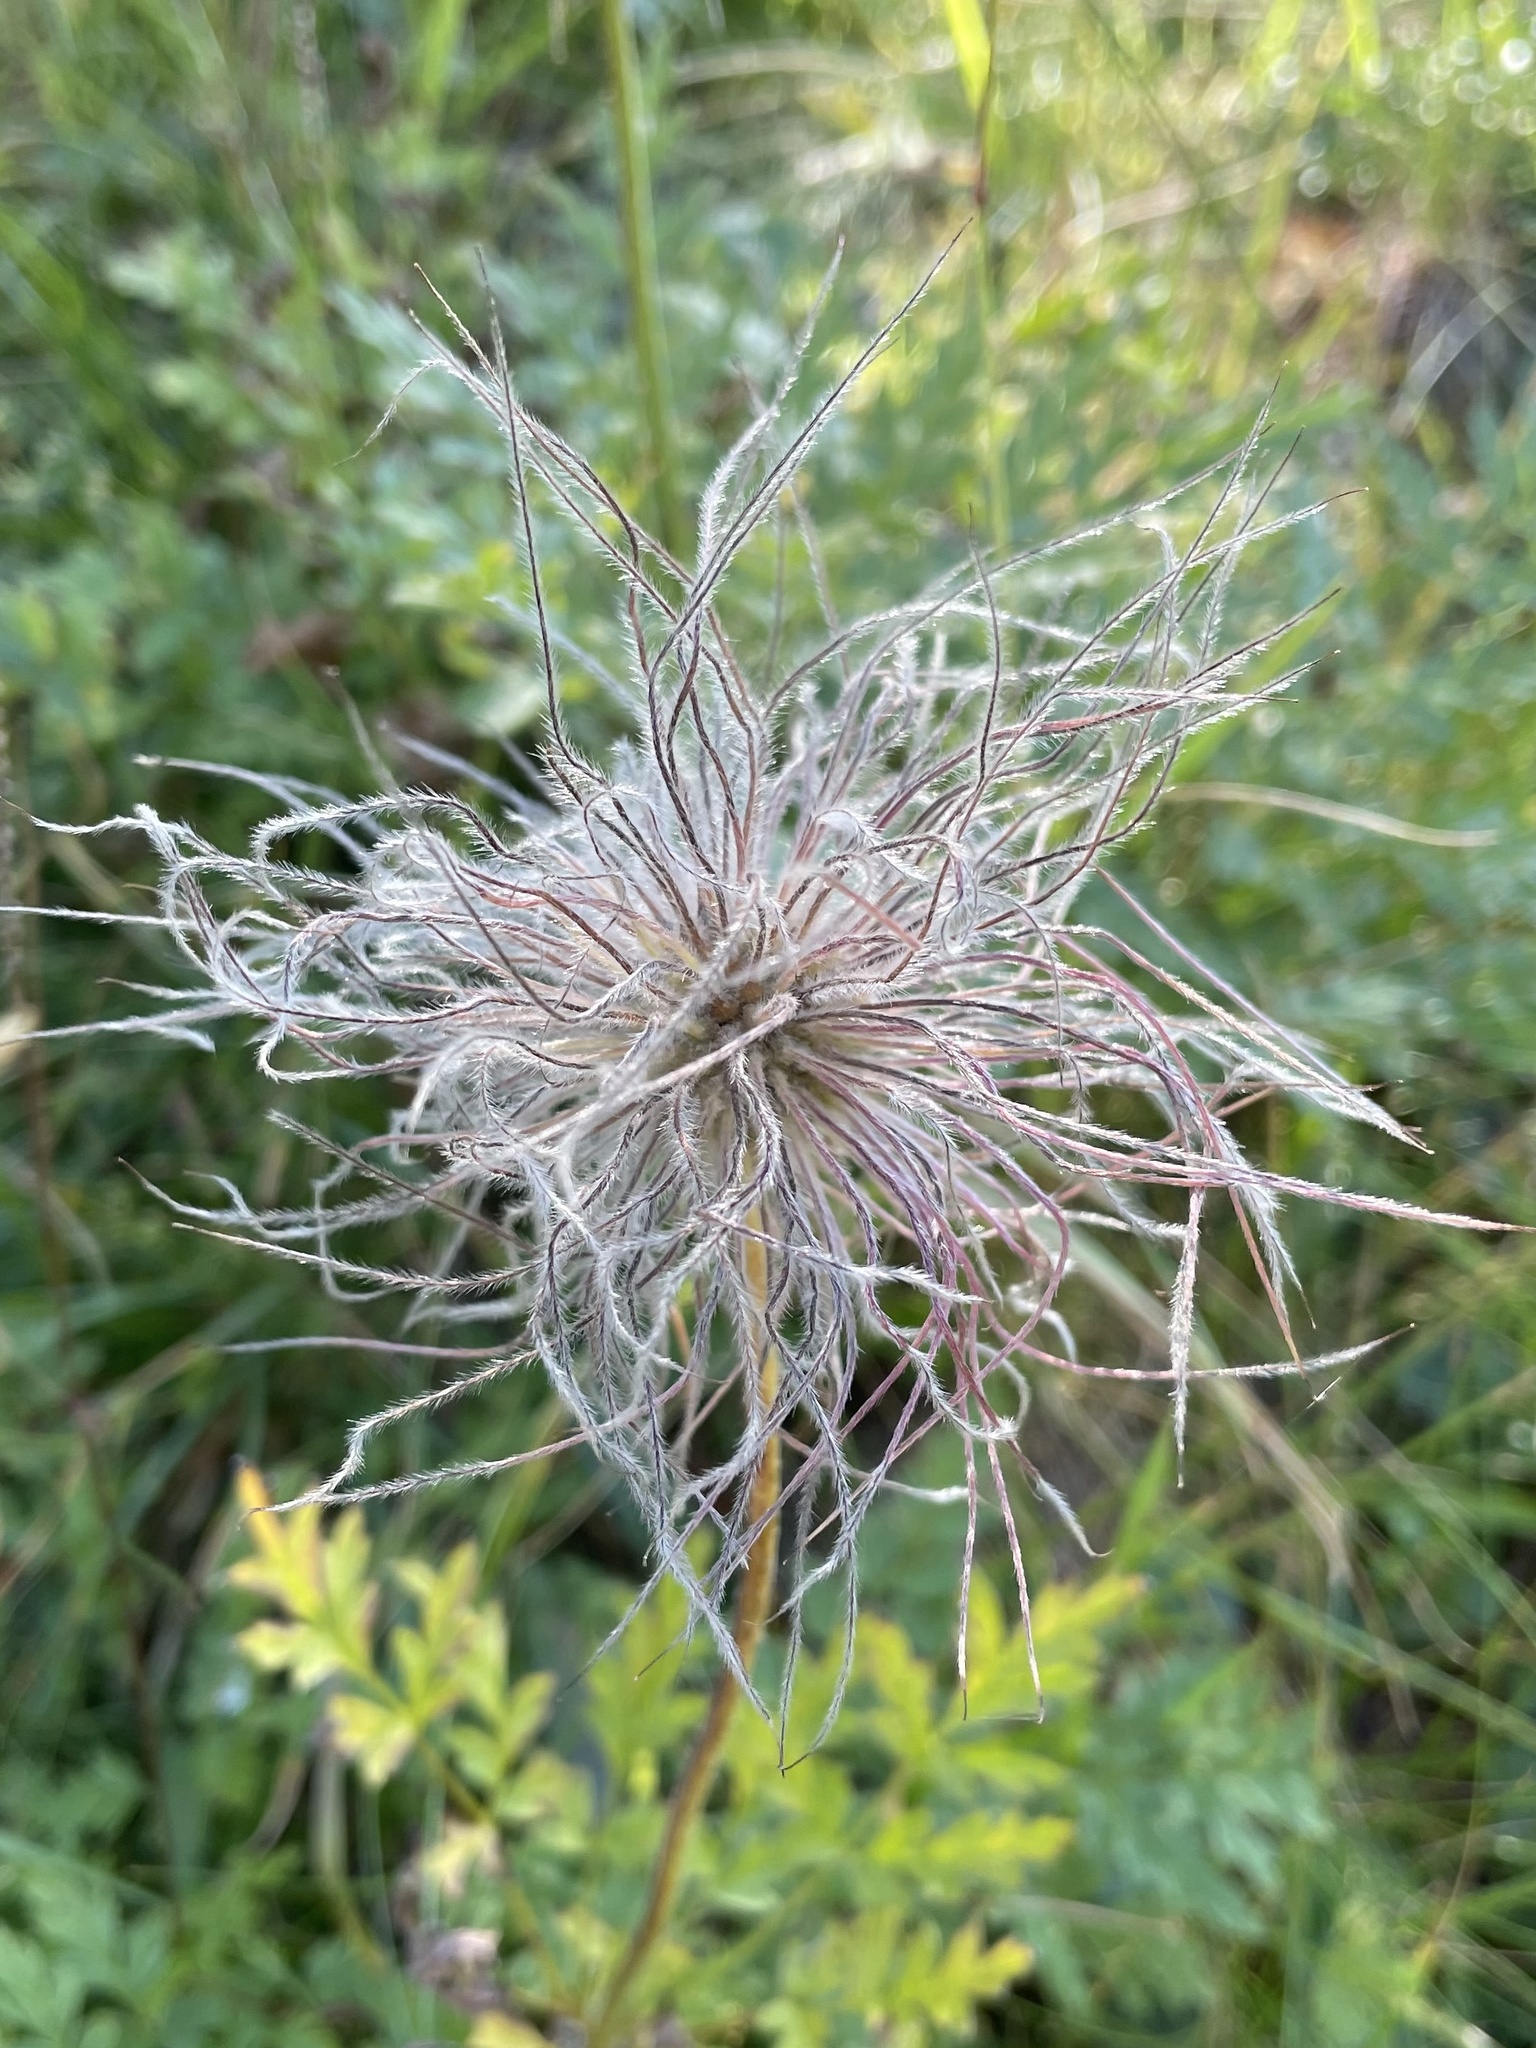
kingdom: Plantae
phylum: Tracheophyta
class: Magnoliopsida
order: Ranunculales
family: Ranunculaceae
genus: Pulsatilla
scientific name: Pulsatilla alpina
